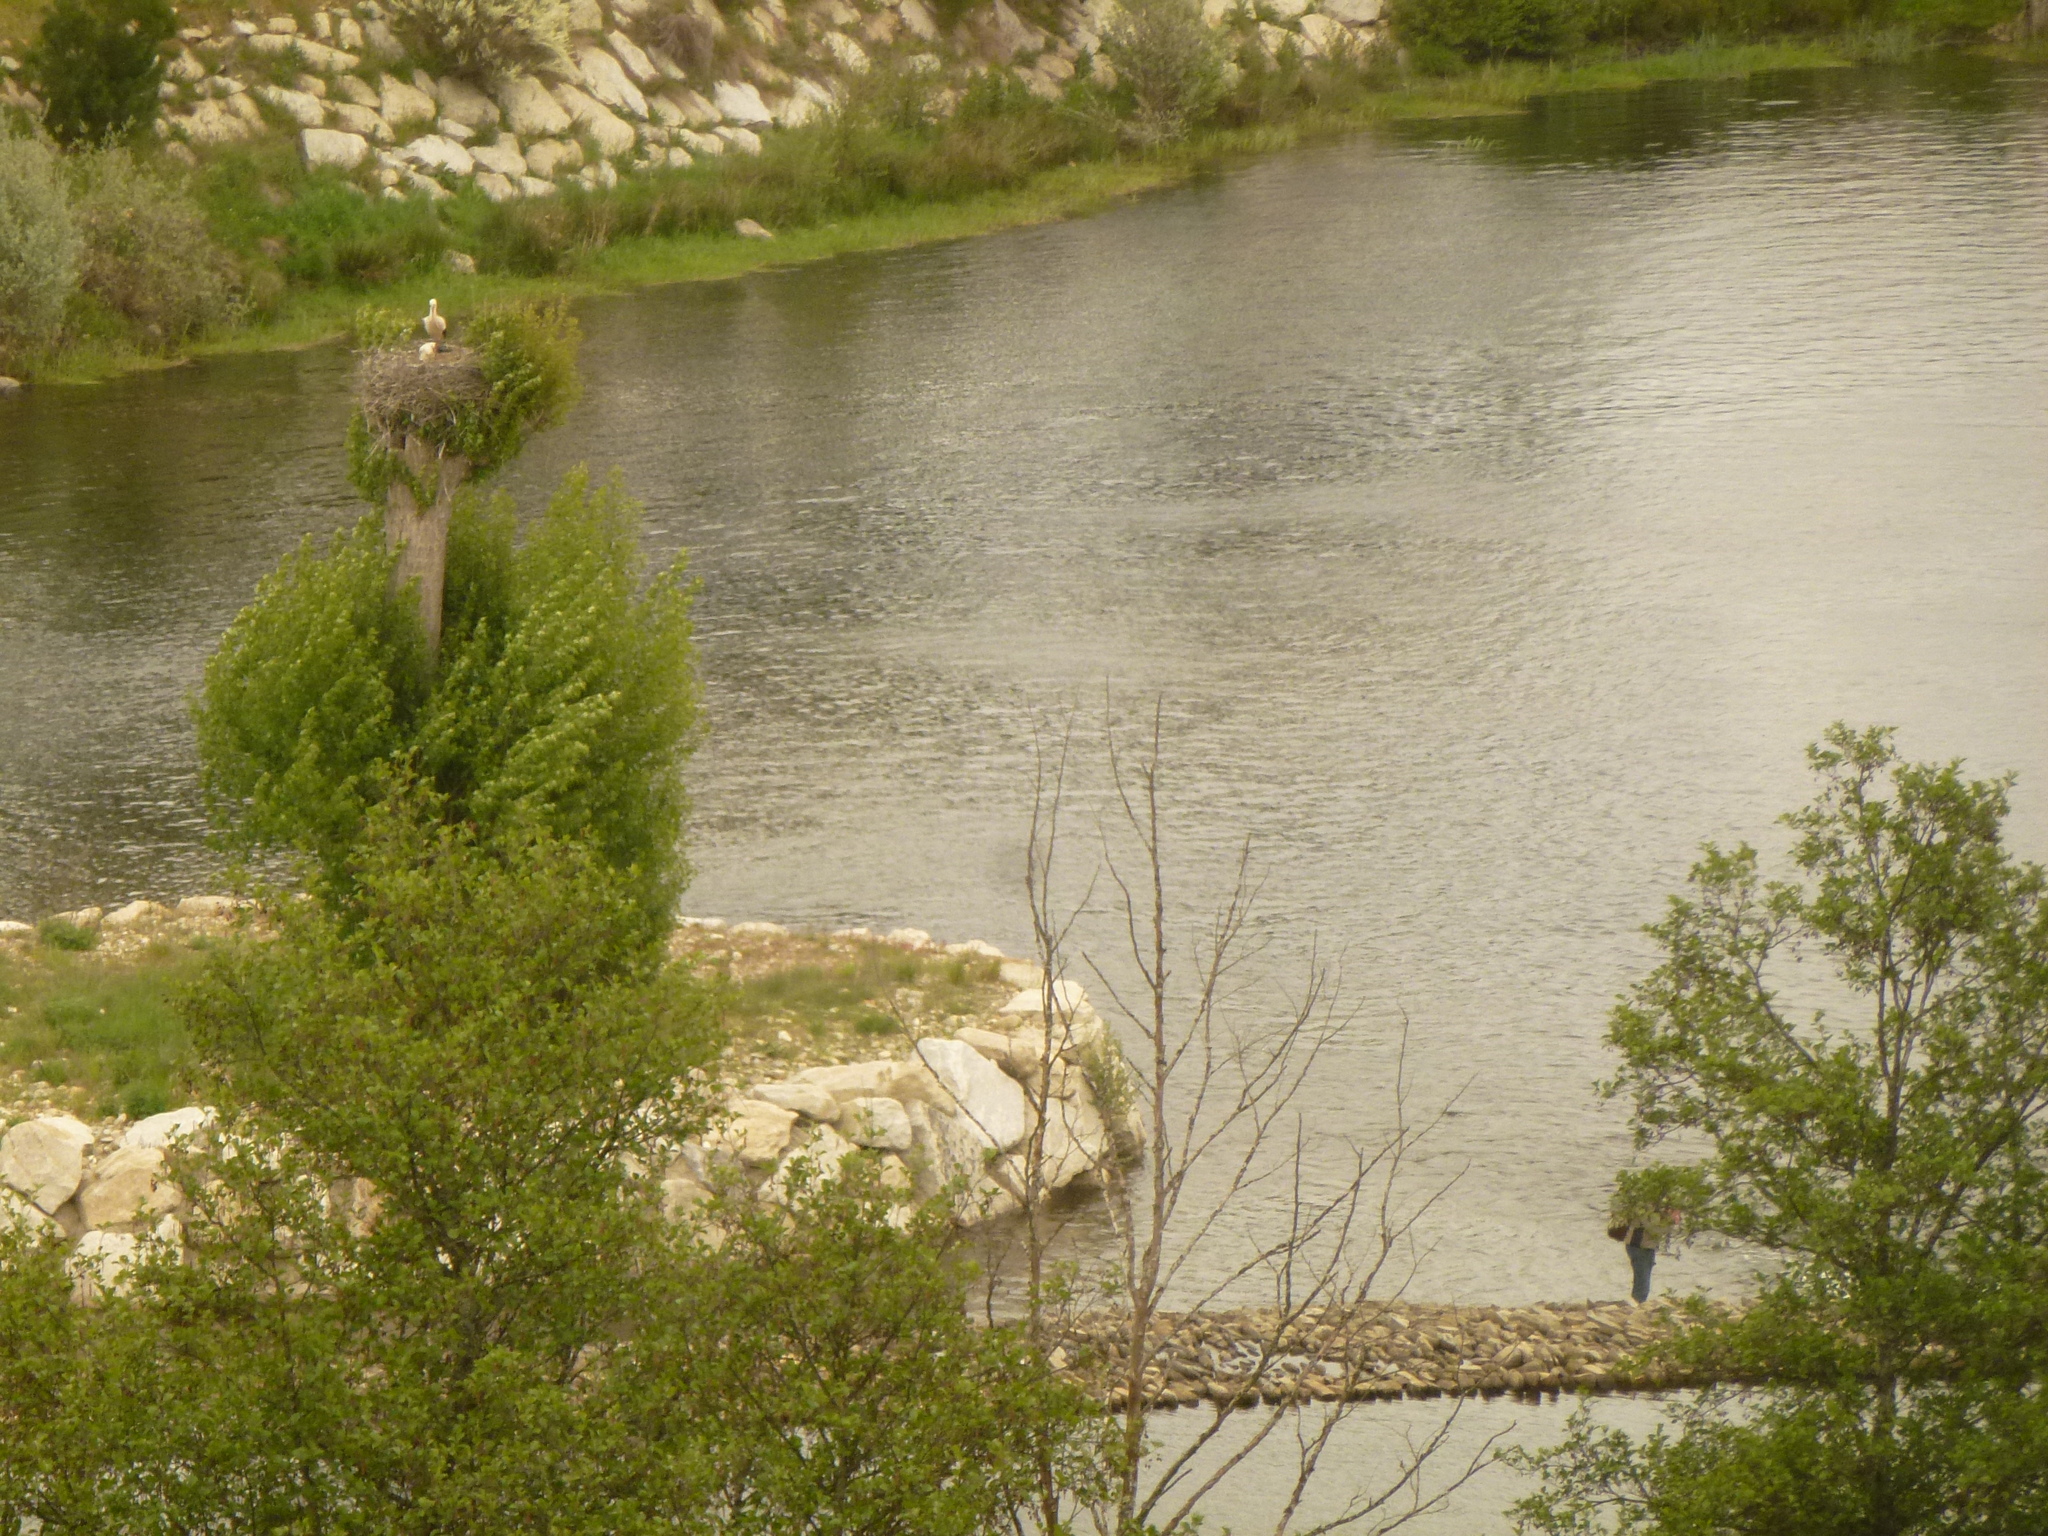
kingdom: Animalia
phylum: Chordata
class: Aves
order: Ciconiiformes
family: Ciconiidae
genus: Ciconia
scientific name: Ciconia ciconia
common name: White stork
